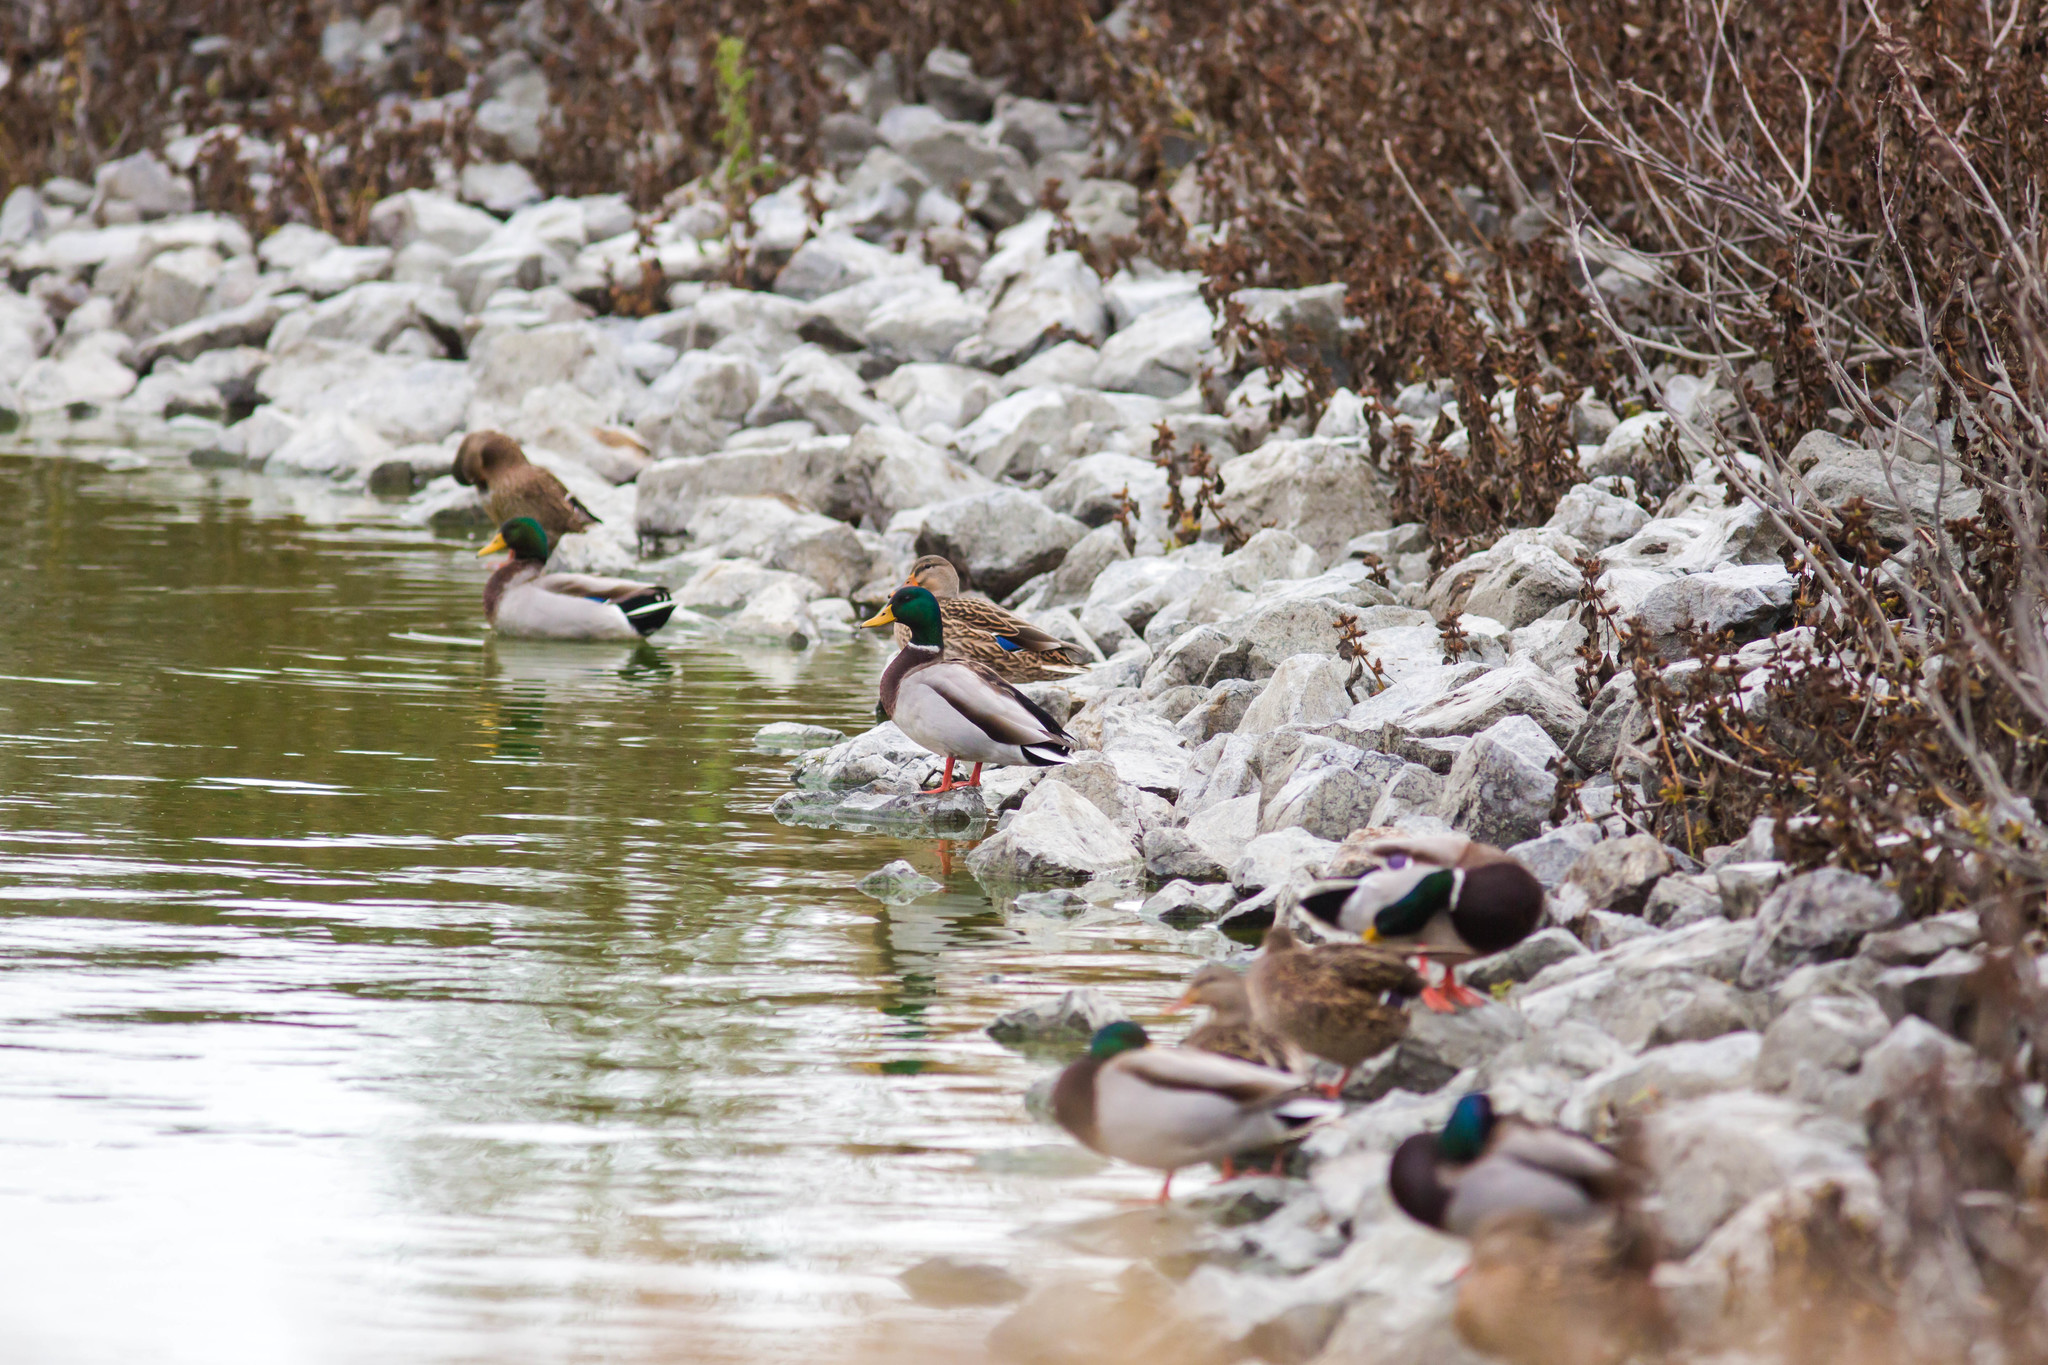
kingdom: Animalia
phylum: Chordata
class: Aves
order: Anseriformes
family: Anatidae
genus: Anas
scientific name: Anas platyrhynchos
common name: Mallard
